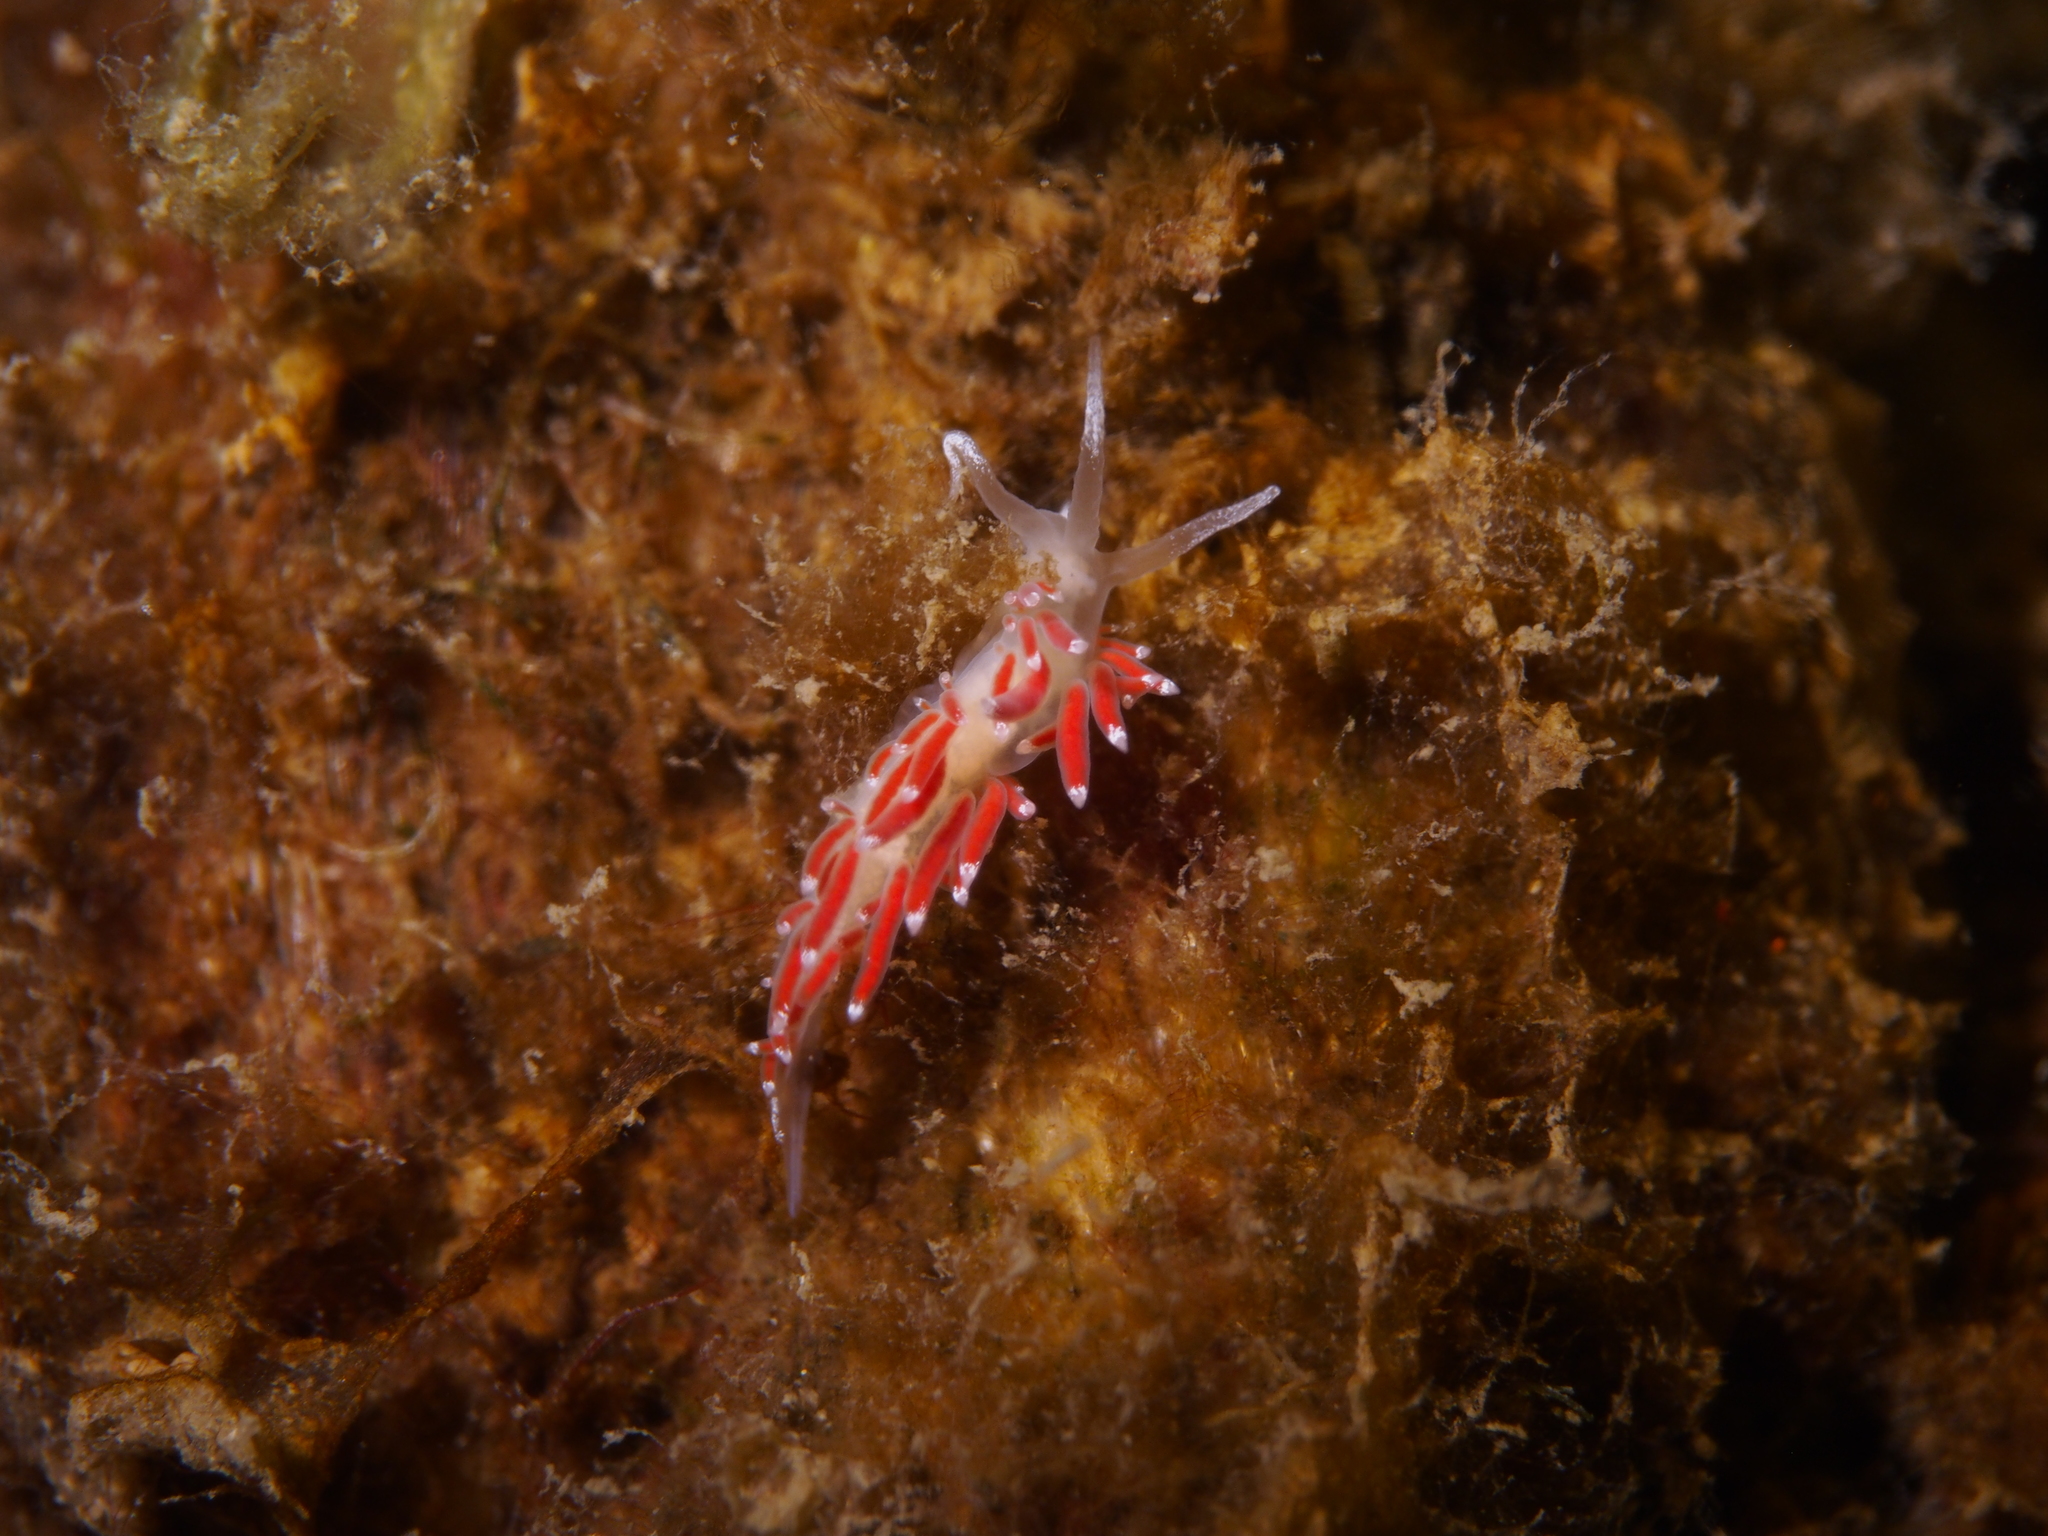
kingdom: Animalia
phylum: Mollusca
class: Gastropoda
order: Nudibranchia
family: Coryphellidae
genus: Coryphella
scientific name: Coryphella gracilis
